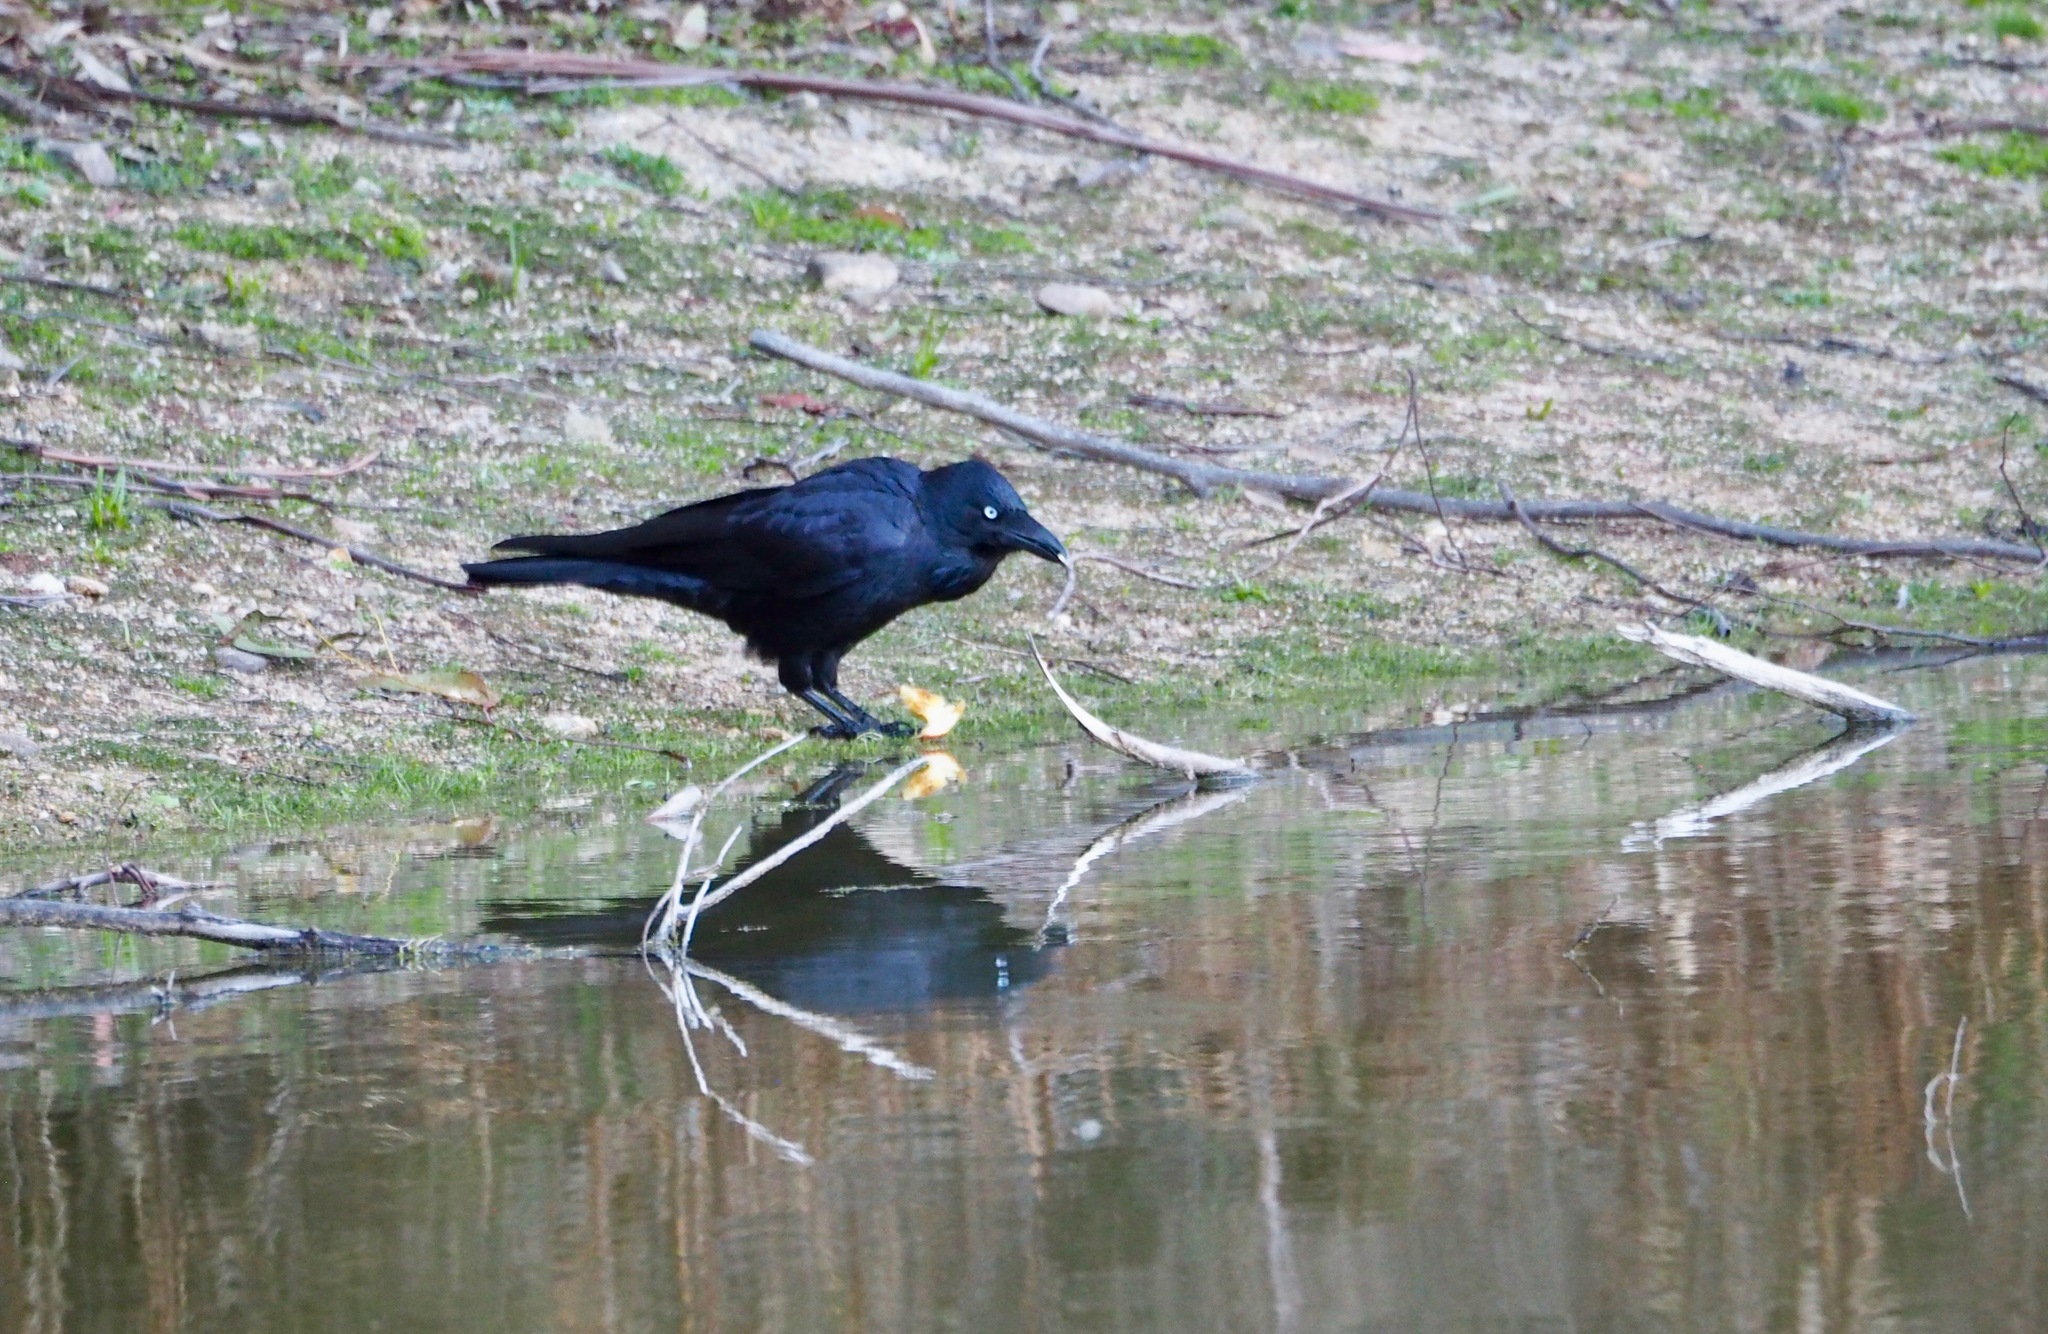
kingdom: Animalia
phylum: Chordata
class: Aves
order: Passeriformes
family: Corvidae
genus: Corvus
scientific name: Corvus coronoides
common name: Australian raven
